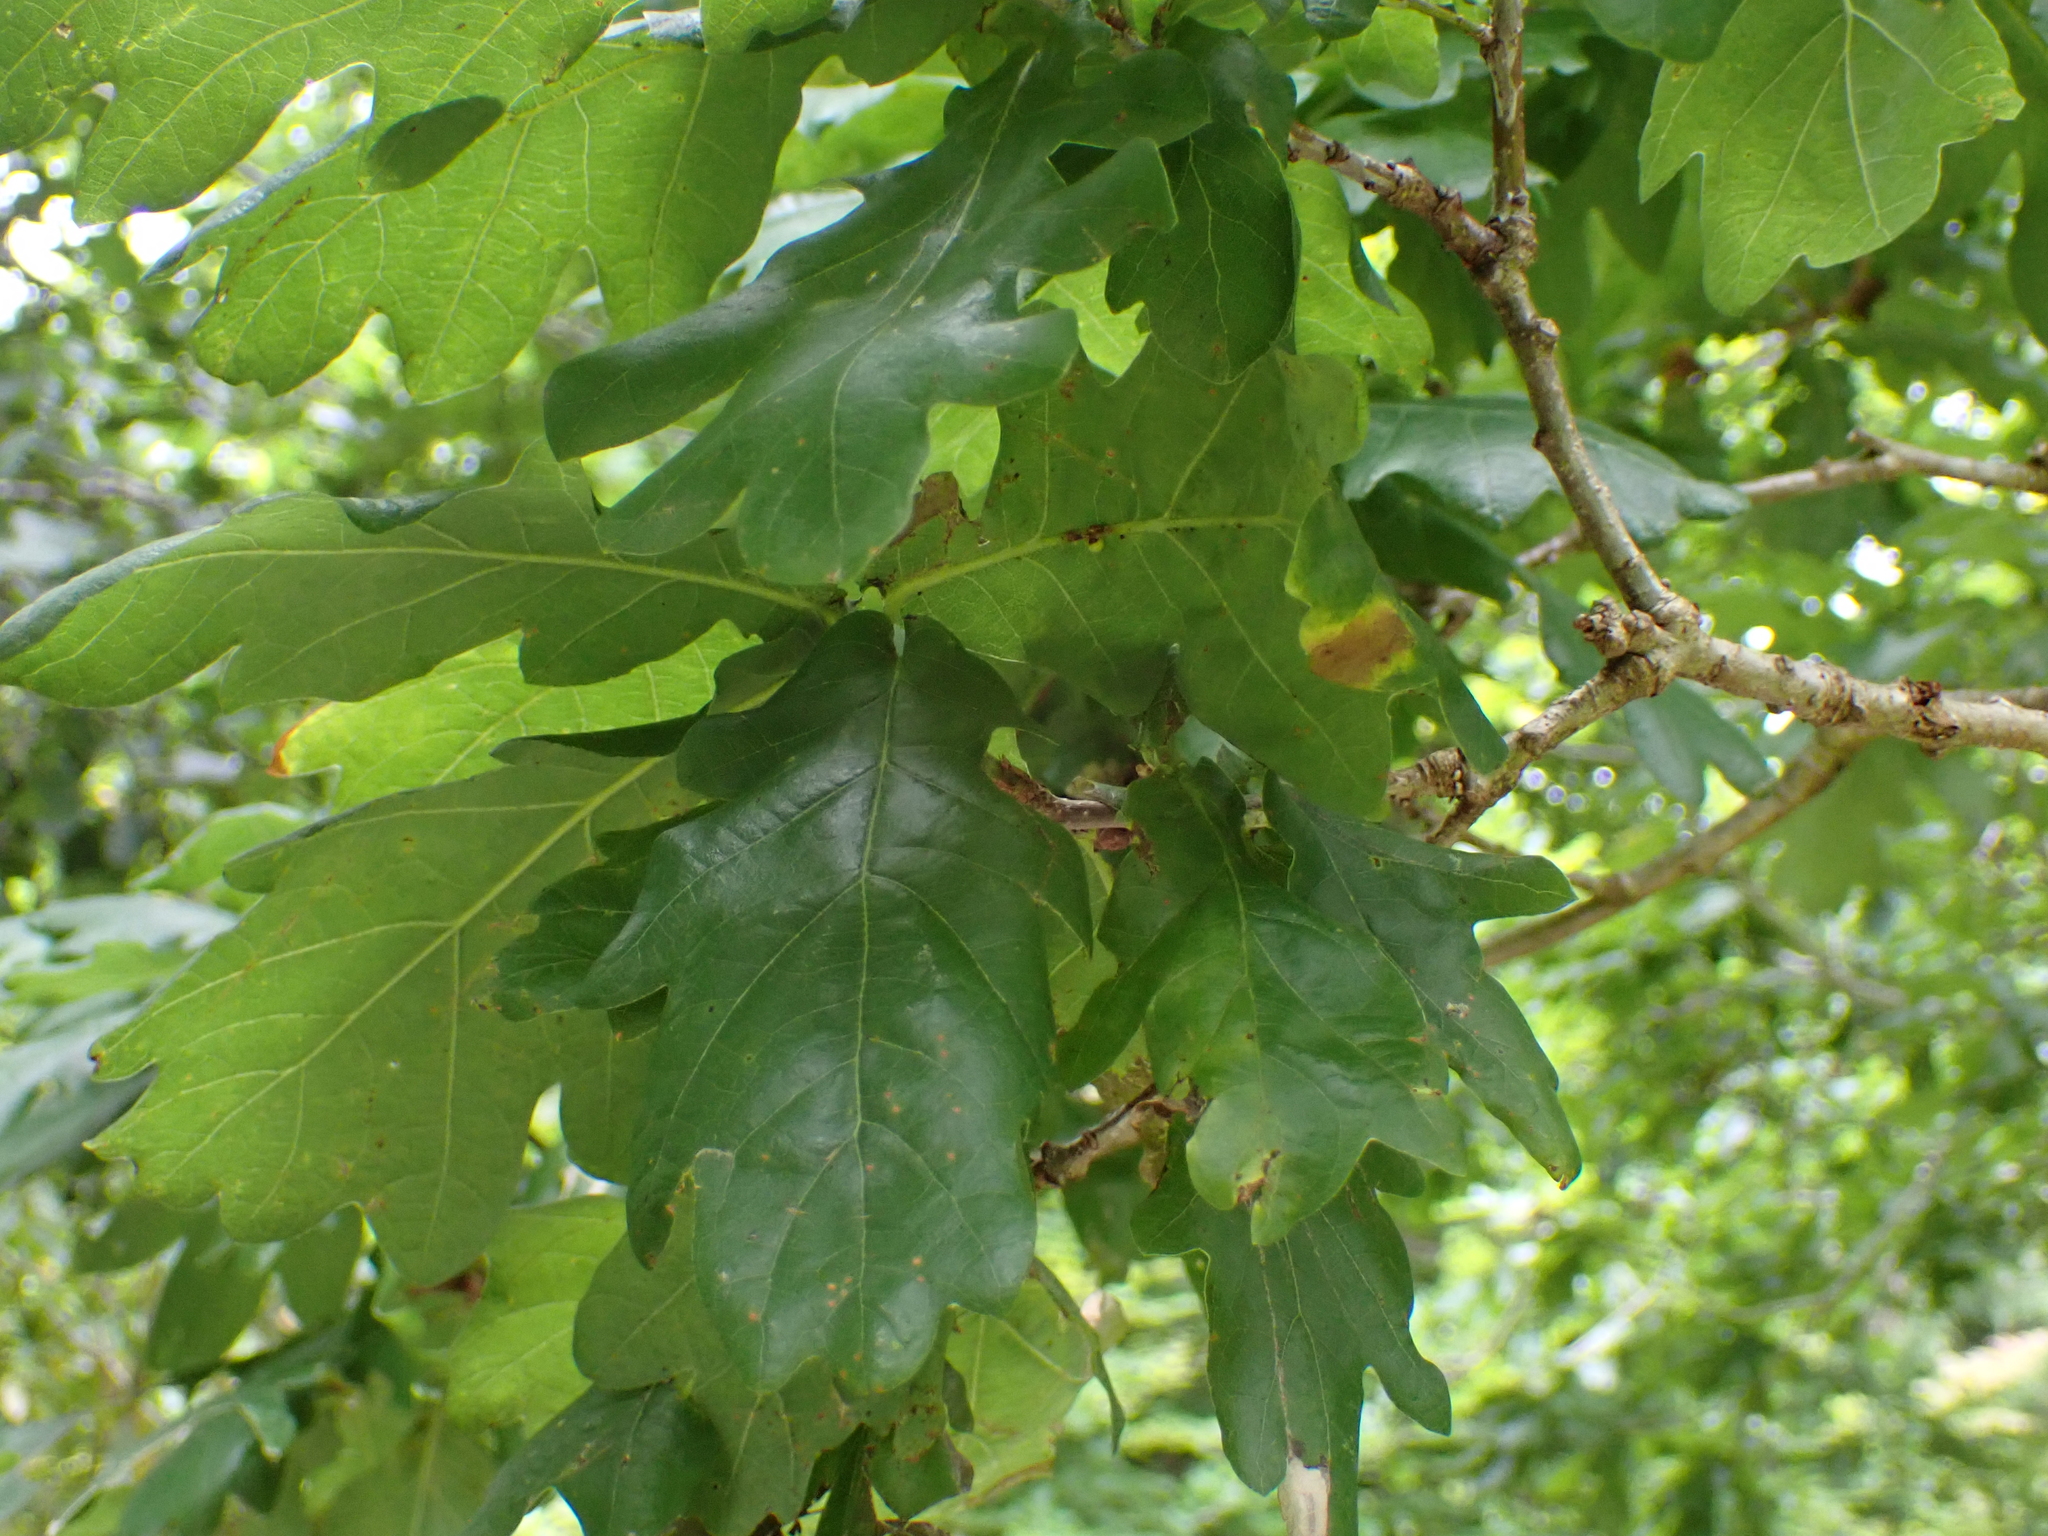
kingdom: Animalia
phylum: Arthropoda
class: Insecta
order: Hymenoptera
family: Cynipidae
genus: Neuroterus
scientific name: Neuroterus anthracinus
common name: Oyster gall
